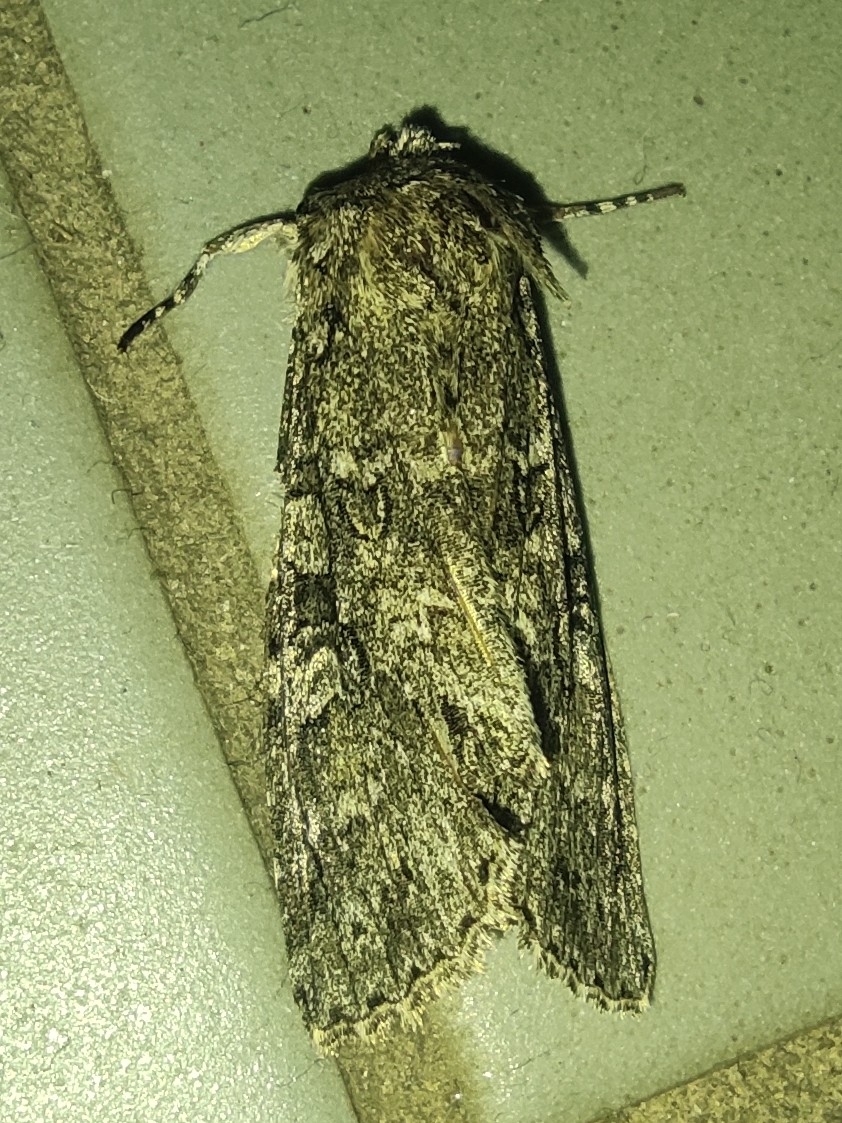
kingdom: Animalia
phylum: Arthropoda
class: Insecta
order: Lepidoptera
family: Noctuidae
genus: Polia
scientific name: Polia nebulosa
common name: Grey arches
